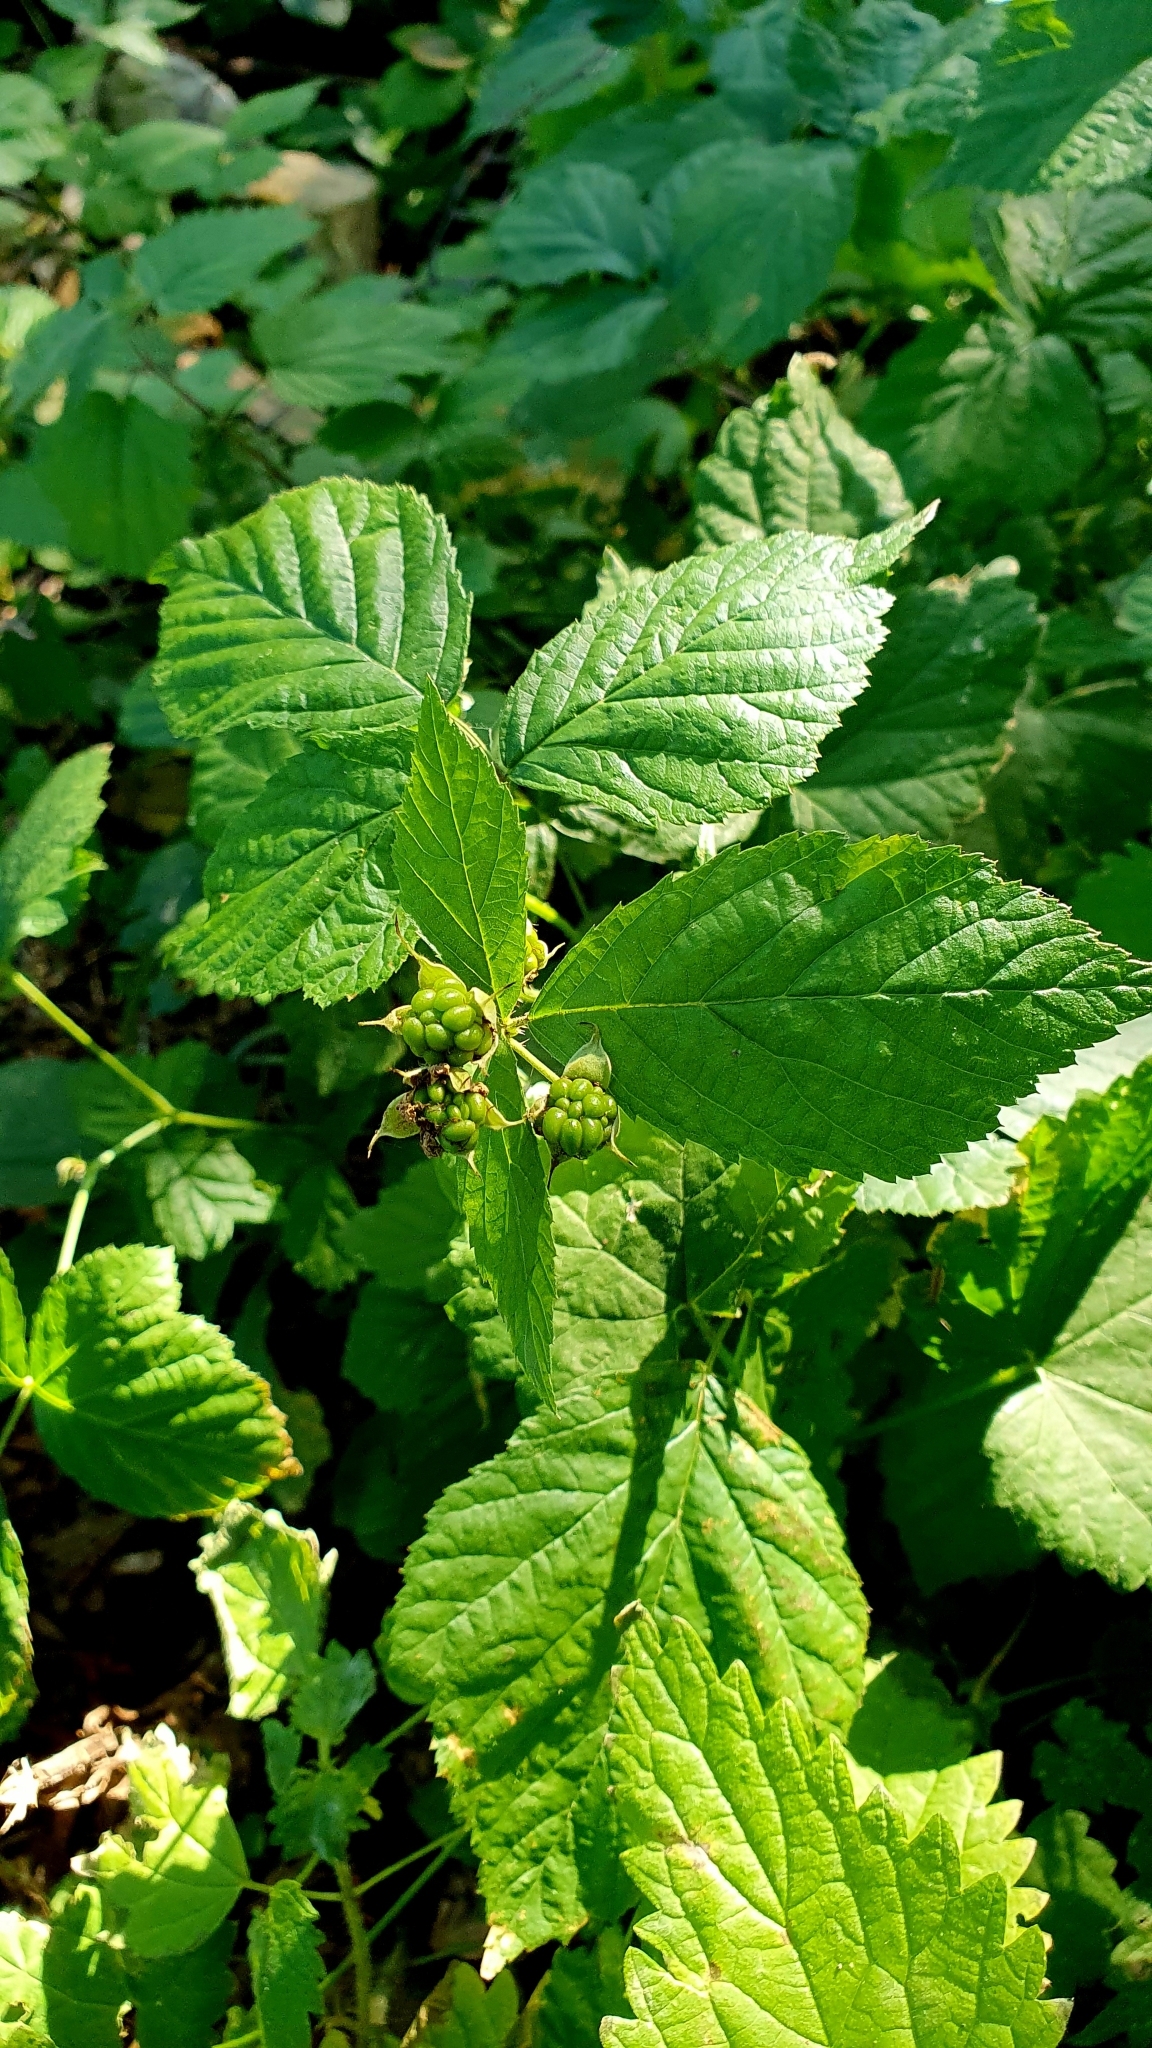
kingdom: Plantae
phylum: Tracheophyta
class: Magnoliopsida
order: Rosales
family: Rosaceae
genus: Rubus
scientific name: Rubus caesius
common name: Dewberry
